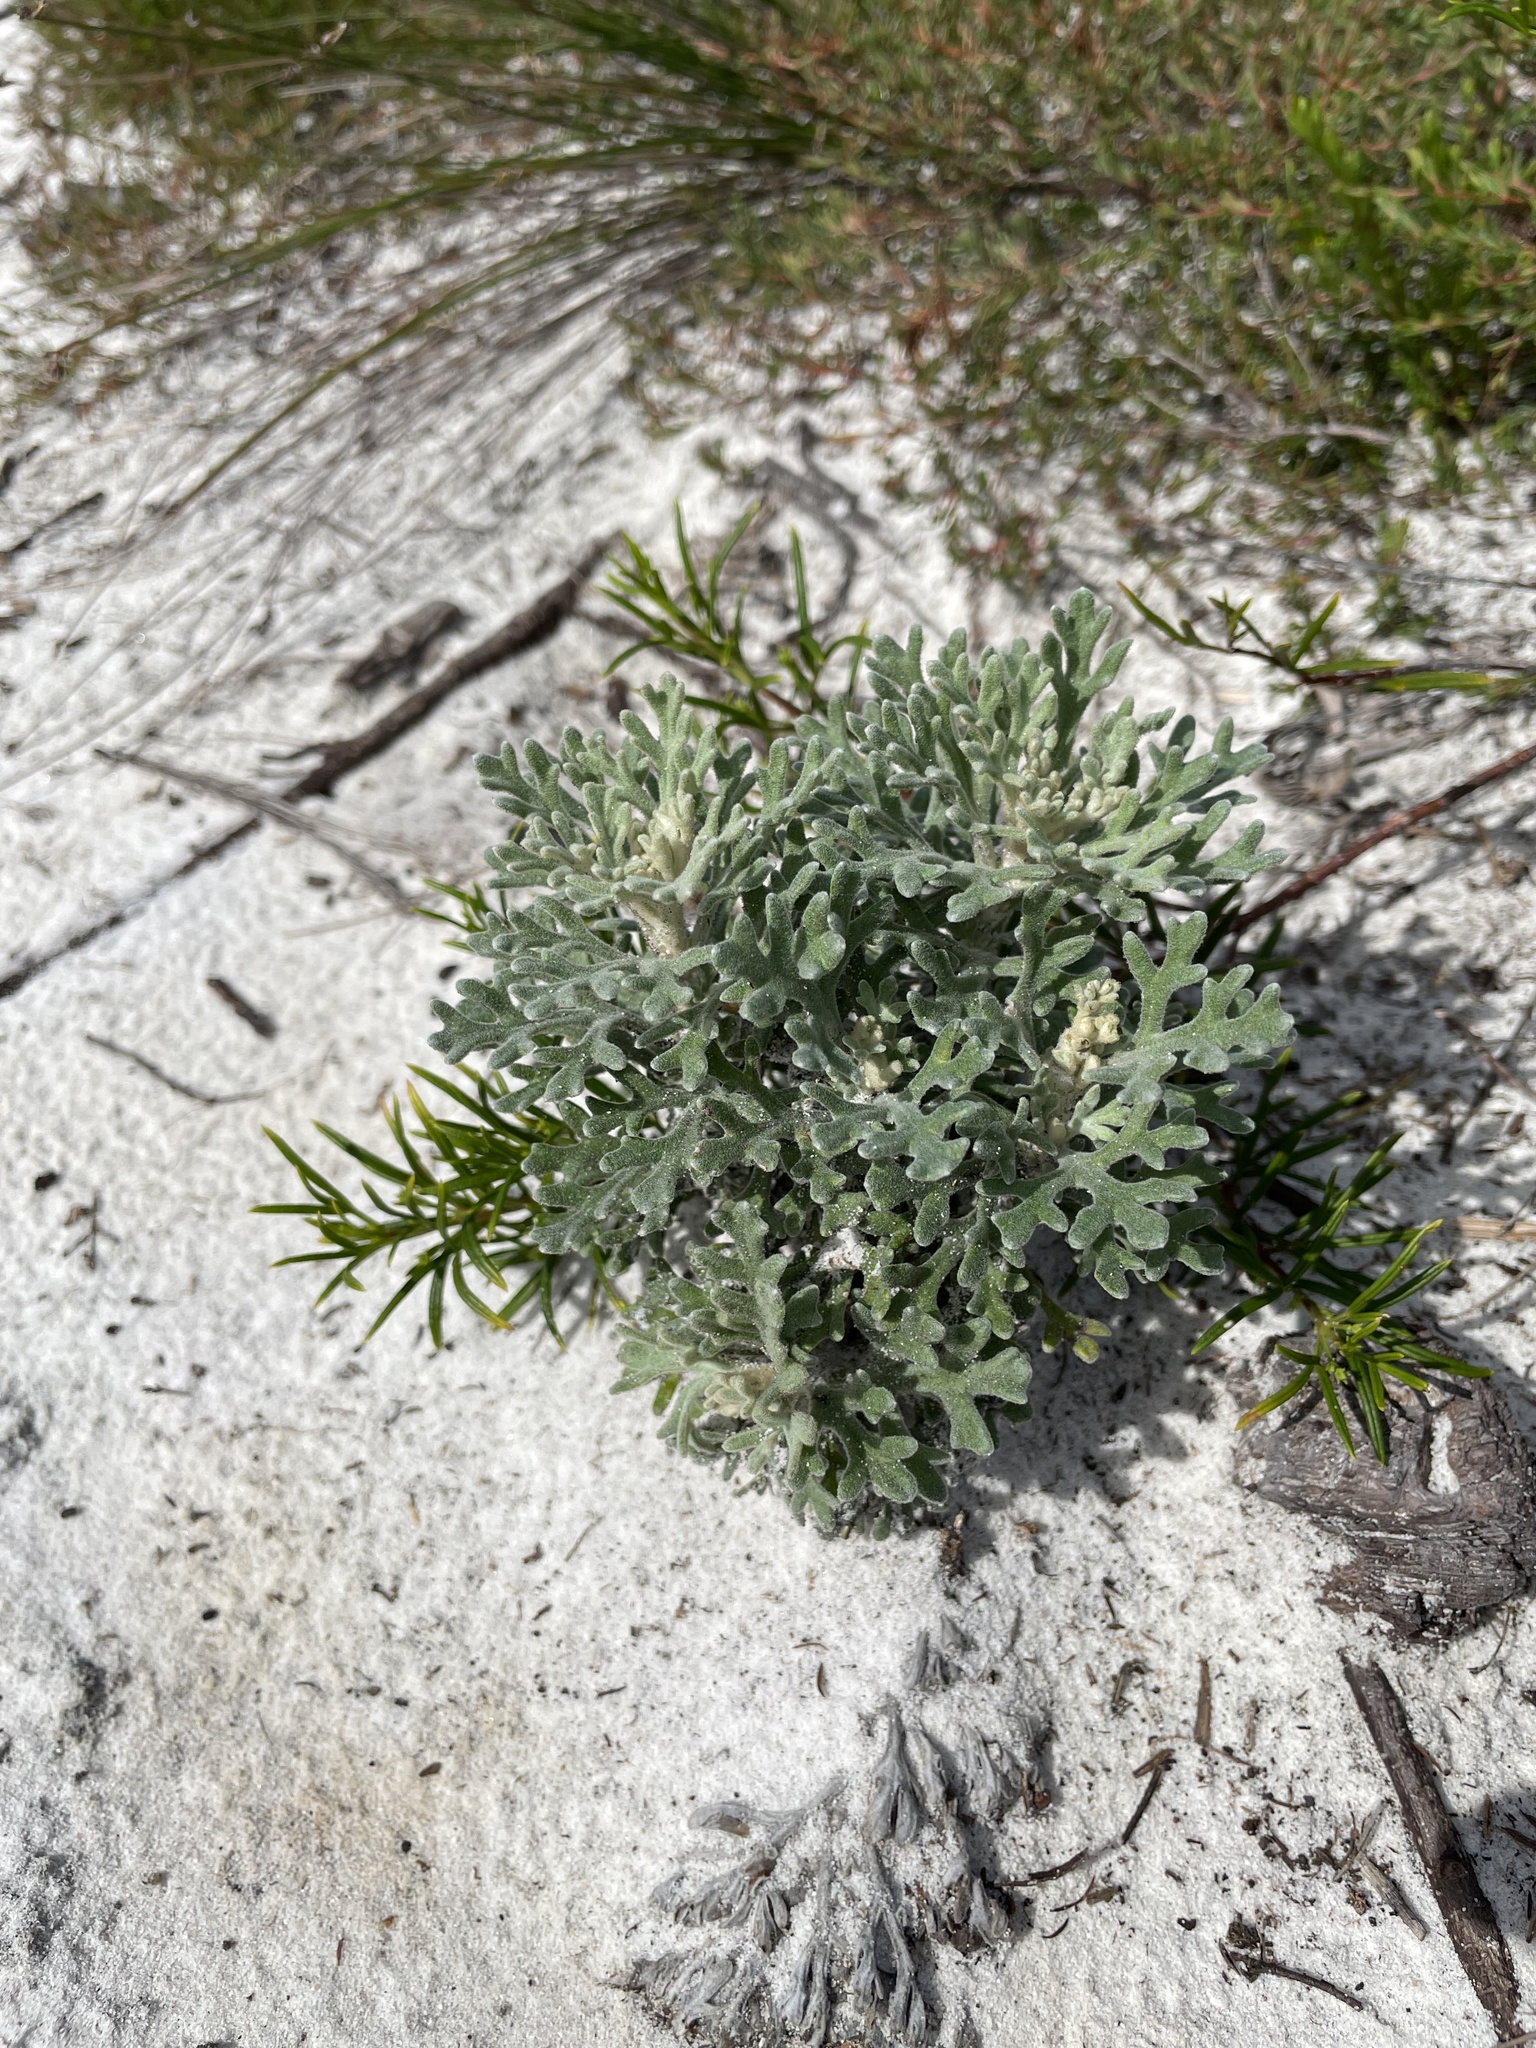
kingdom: Plantae
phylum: Tracheophyta
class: Magnoliopsida
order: Apiales
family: Apiaceae
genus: Actinotus
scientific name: Actinotus helianthi
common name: Flannel-flower
